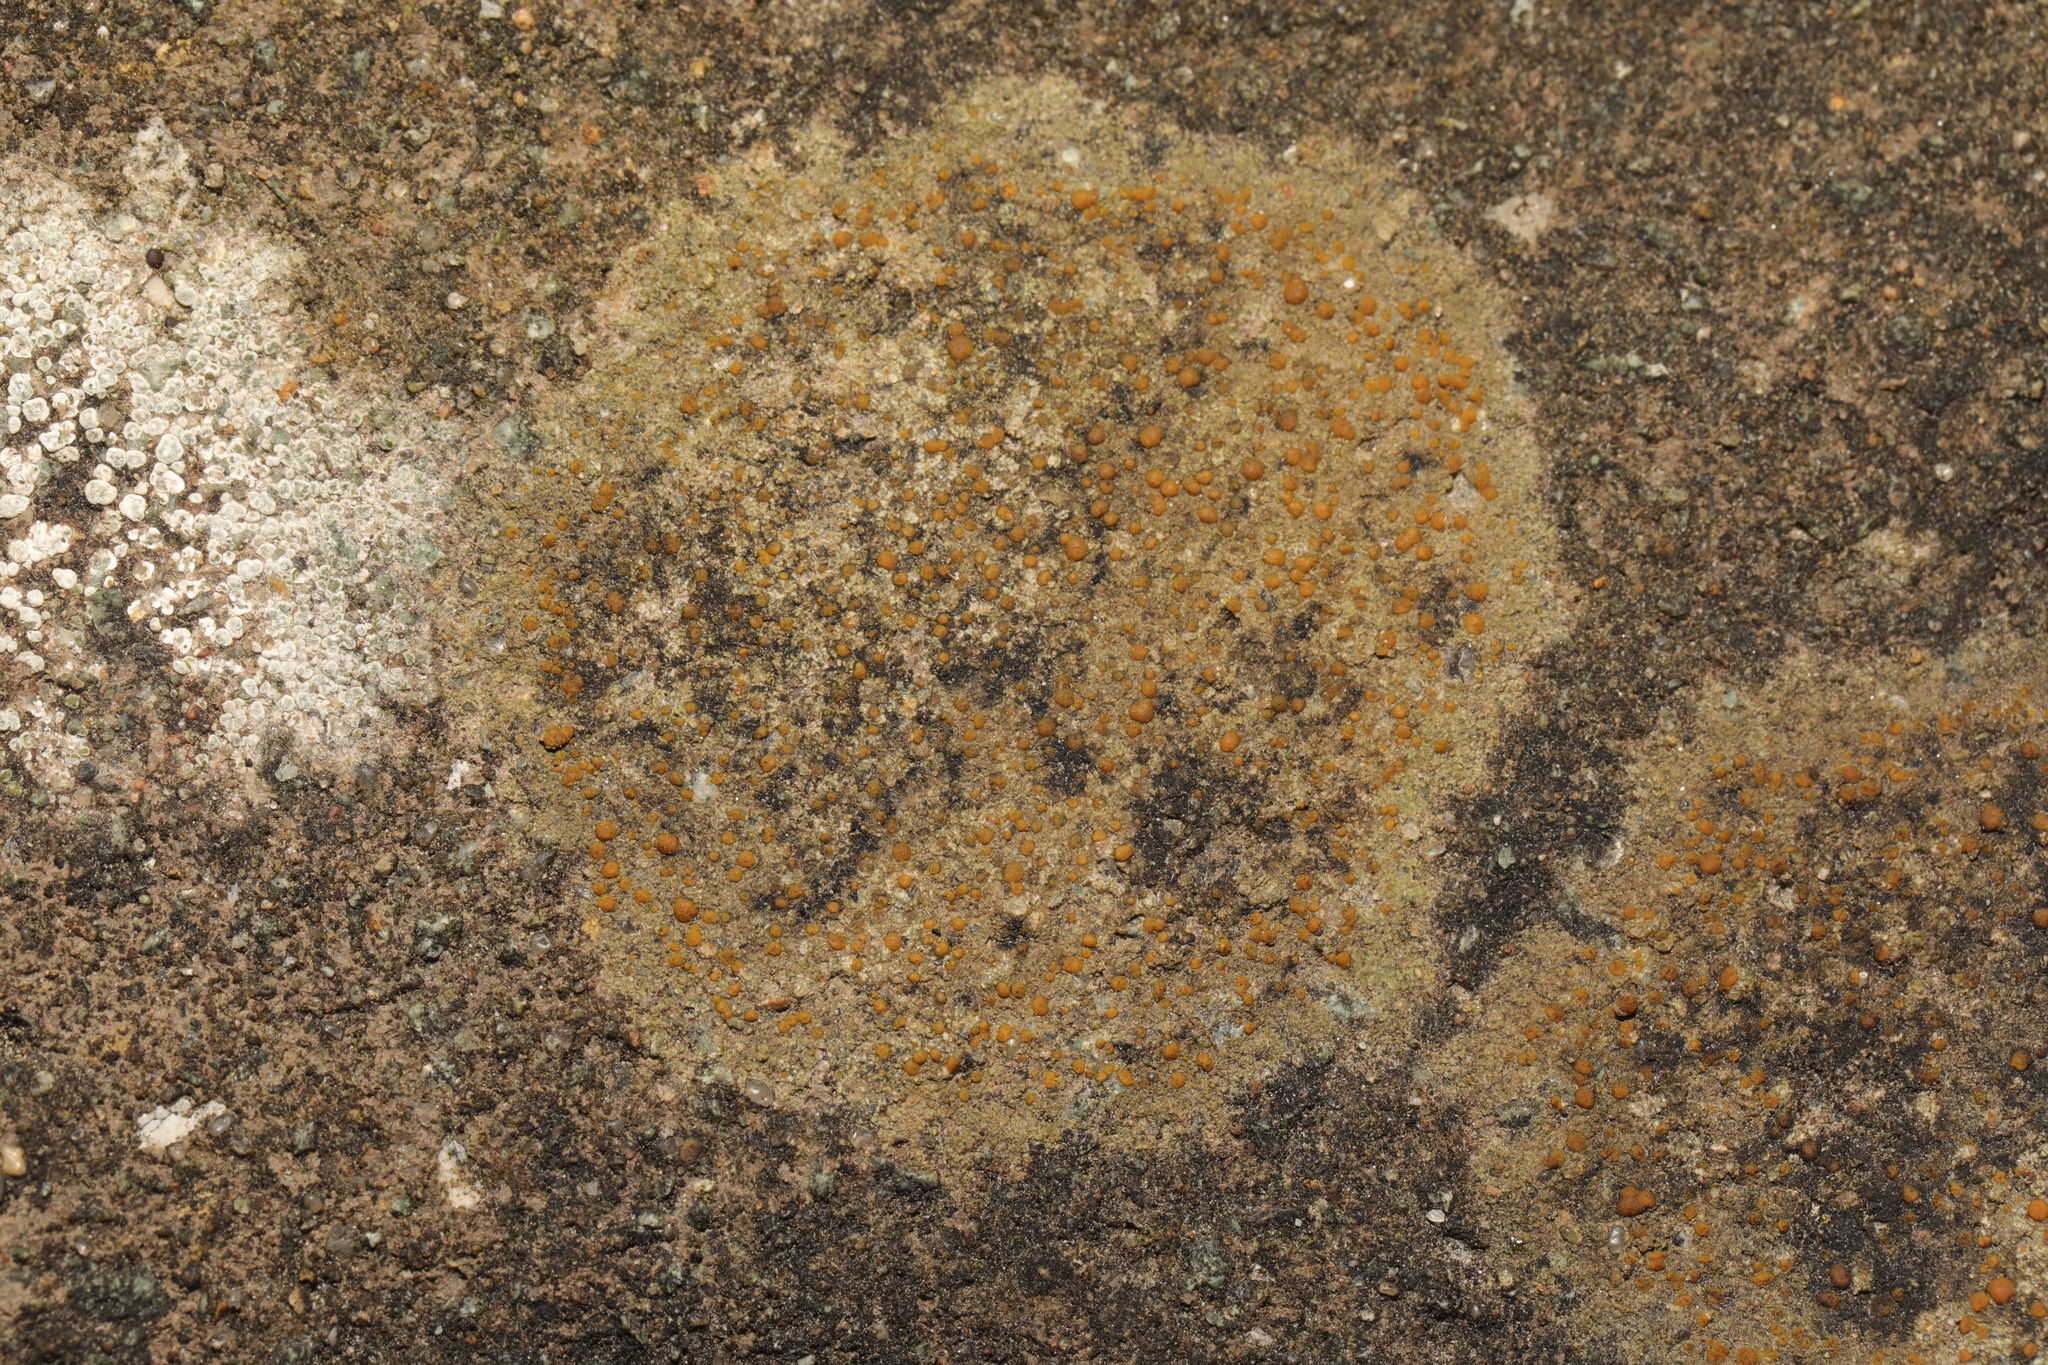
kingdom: Fungi
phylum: Ascomycota
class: Lecanoromycetes
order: Lecanorales
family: Psoraceae
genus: Protoblastenia
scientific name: Protoblastenia rupestris
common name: Chewing gum lichen
